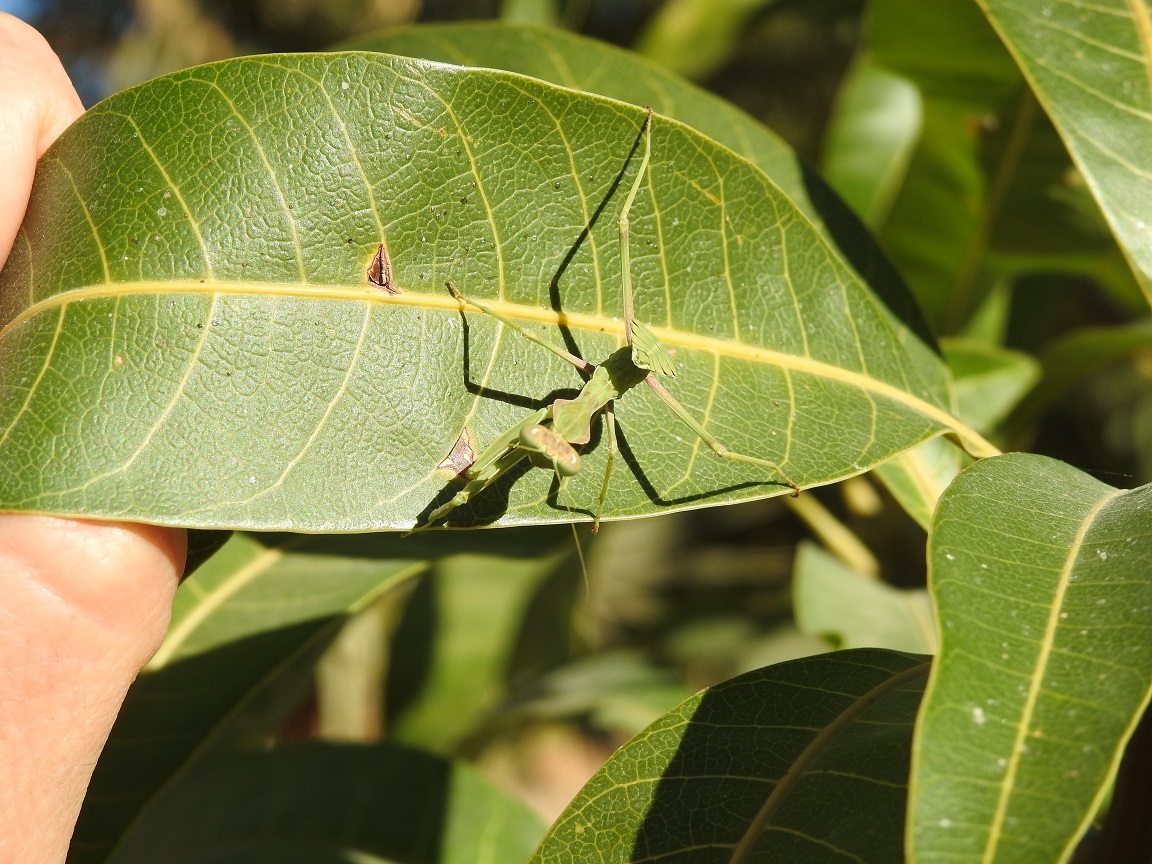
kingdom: Animalia
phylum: Arthropoda
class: Insecta
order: Mantodea
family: Mantidae
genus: Sphodromantis
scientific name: Sphodromantis viridis
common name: Giant african mantis
